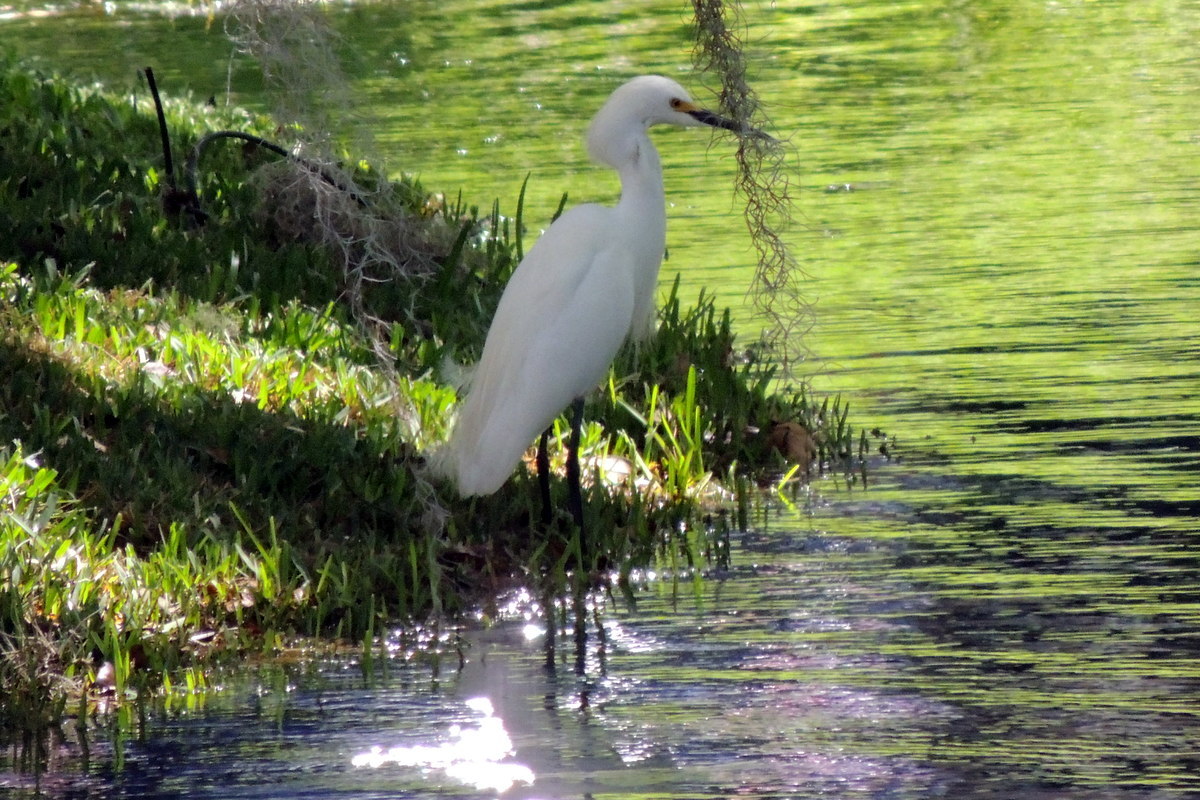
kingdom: Animalia
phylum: Chordata
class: Aves
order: Pelecaniformes
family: Ardeidae
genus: Egretta
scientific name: Egretta thula
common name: Snowy egret
